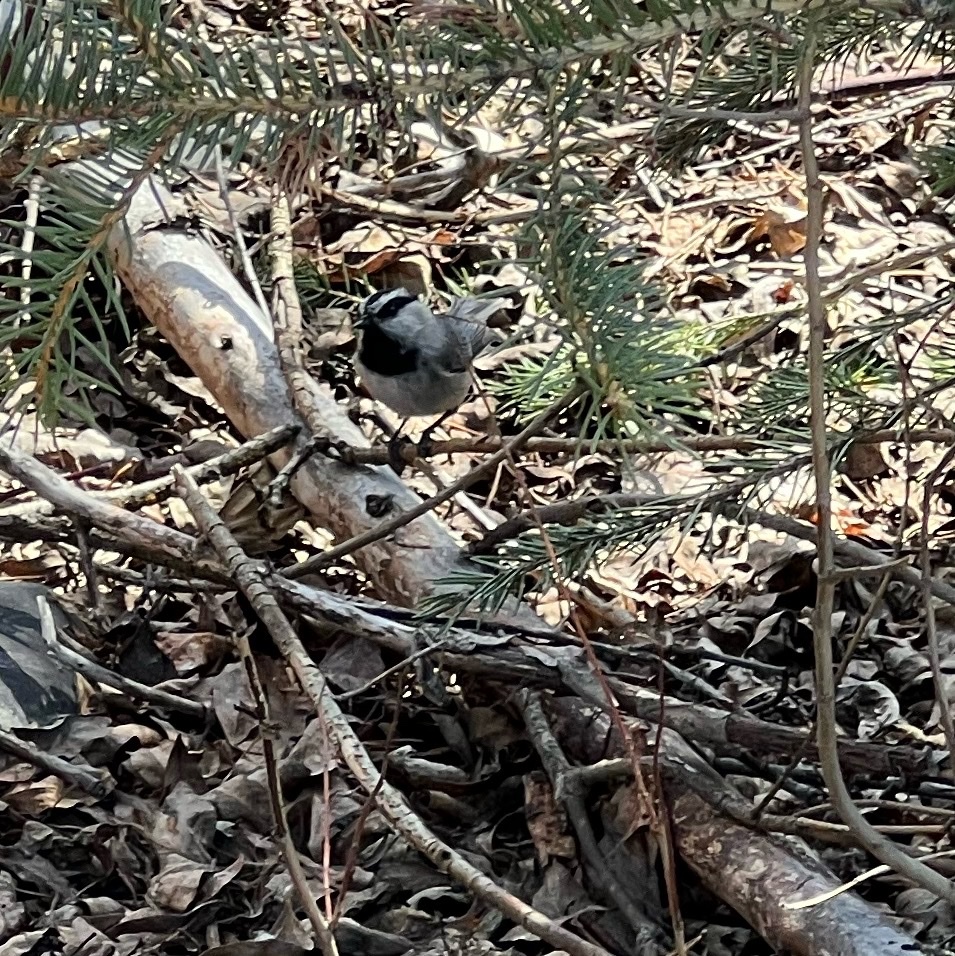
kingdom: Animalia
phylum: Chordata
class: Aves
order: Passeriformes
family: Paridae
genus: Poecile
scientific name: Poecile gambeli
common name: Mountain chickadee
